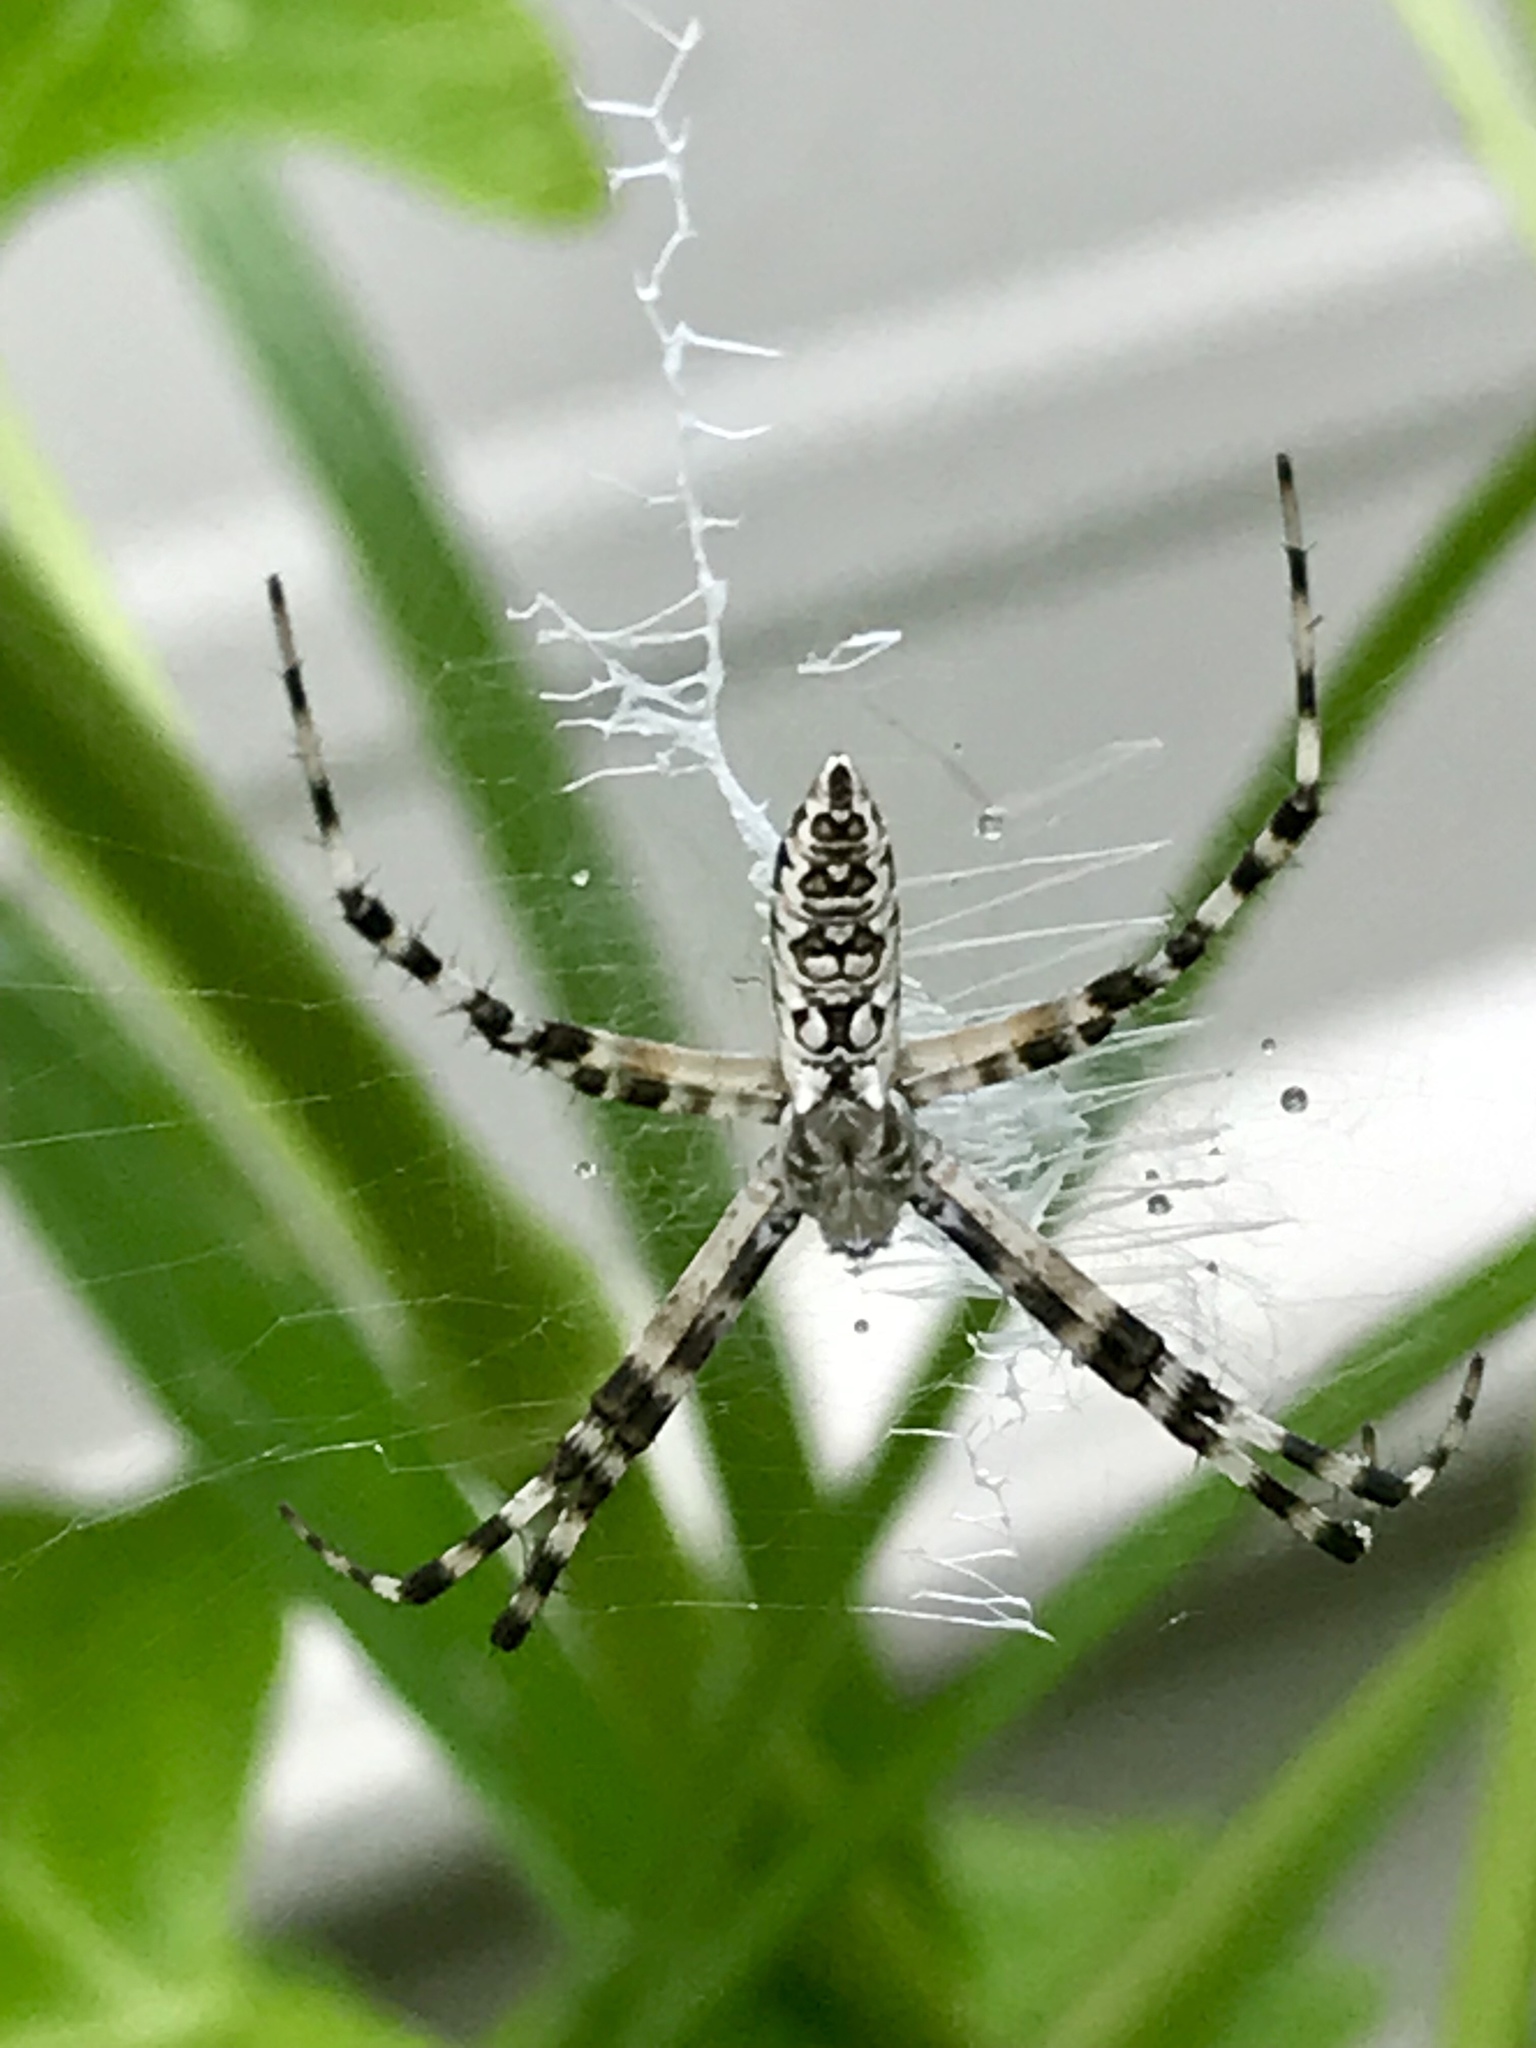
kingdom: Animalia
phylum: Arthropoda
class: Arachnida
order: Araneae
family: Araneidae
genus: Argiope
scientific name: Argiope aurantia
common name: Orb weavers
